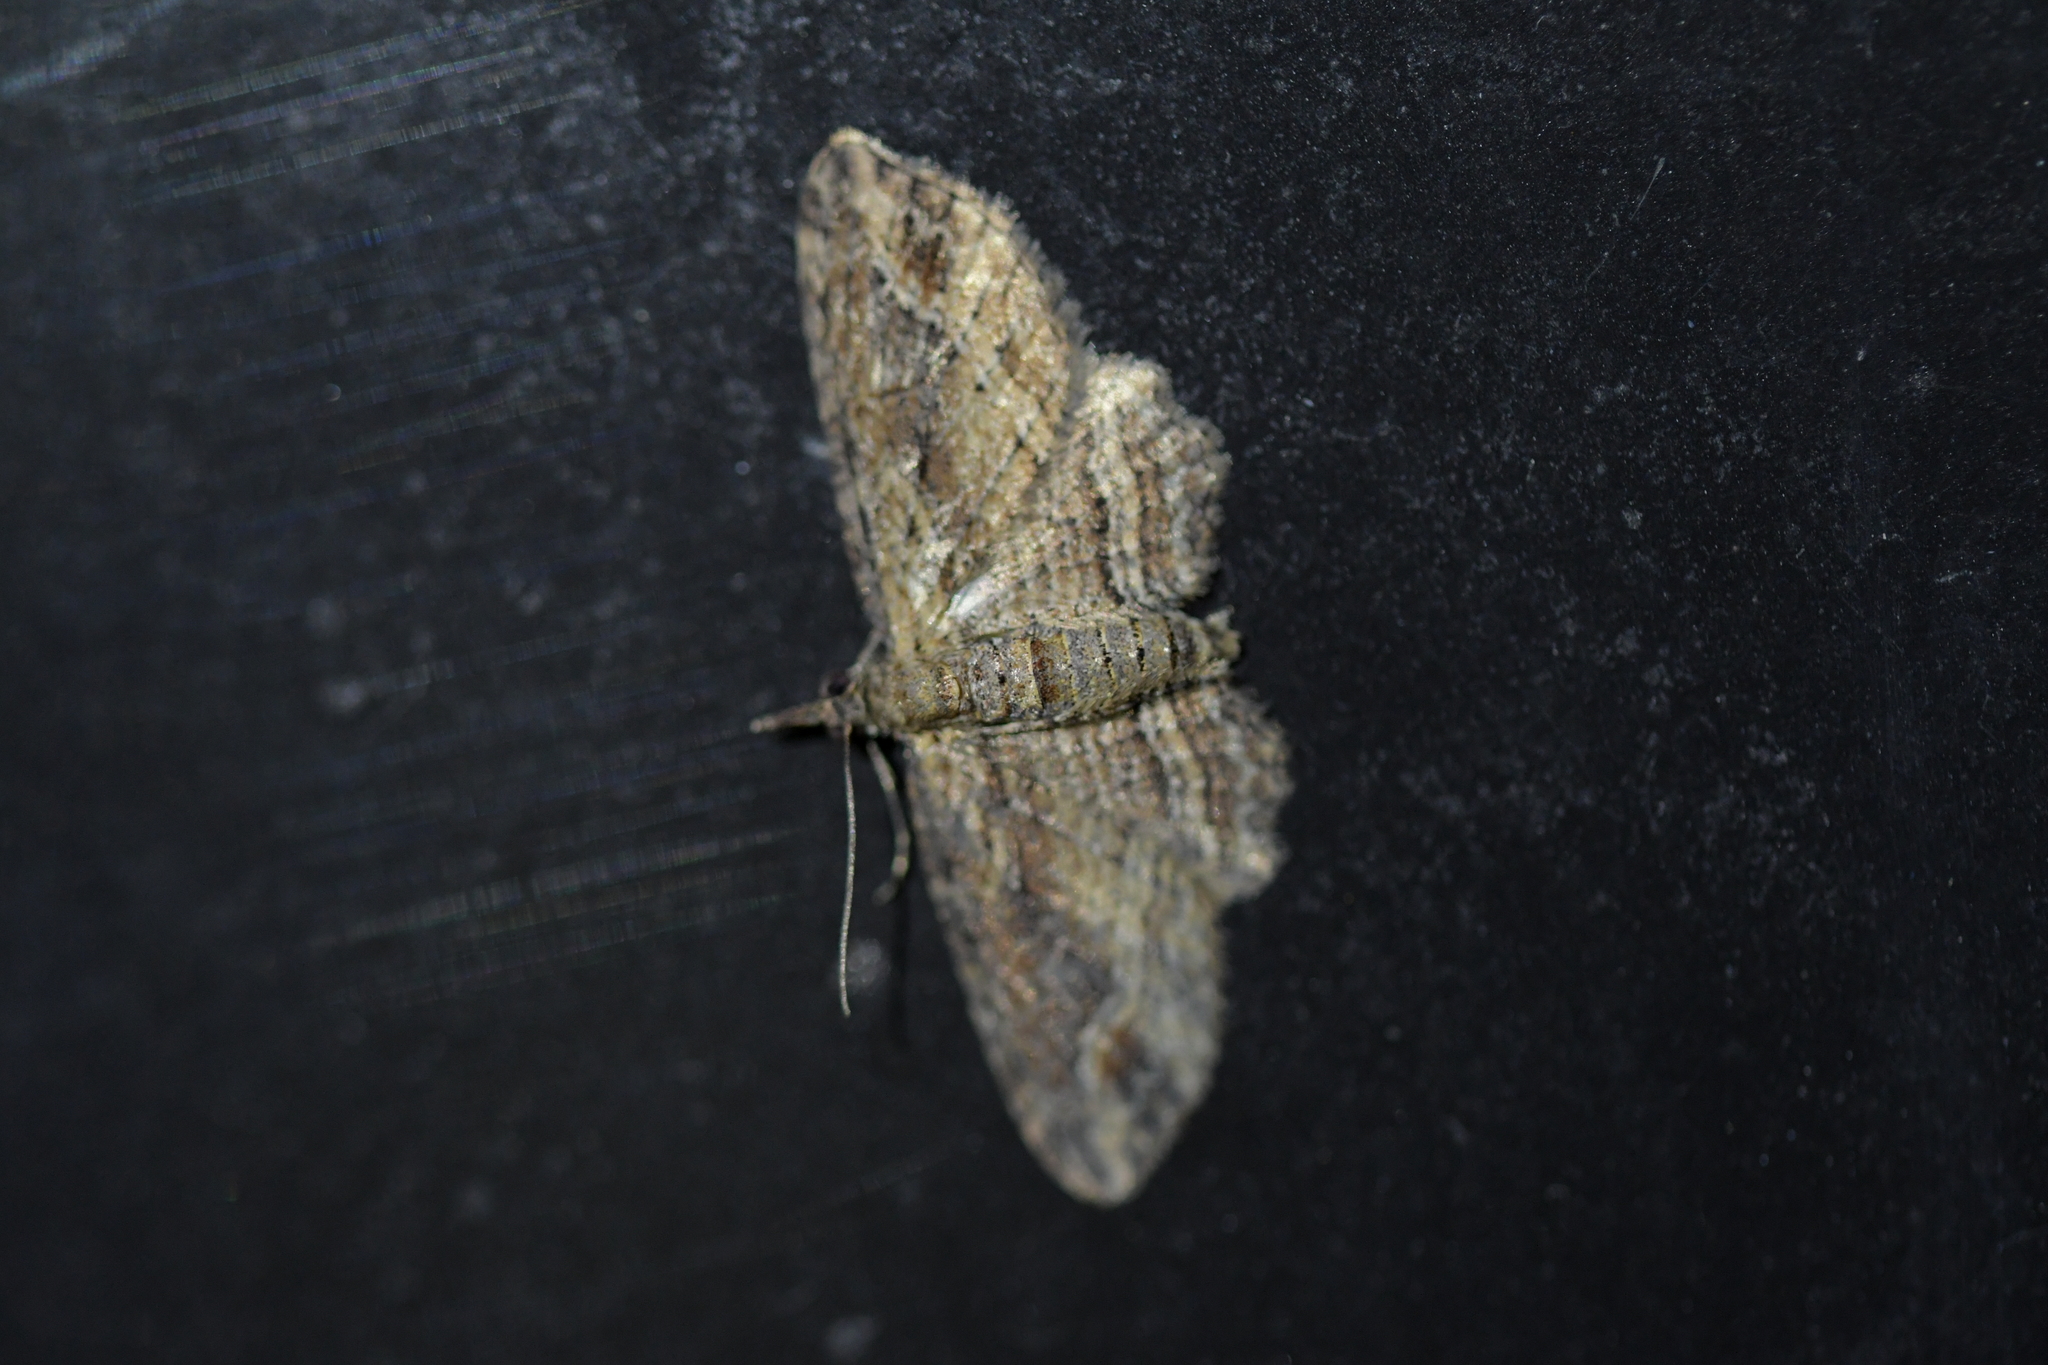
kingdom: Animalia
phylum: Arthropoda
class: Insecta
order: Lepidoptera
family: Geometridae
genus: Chloroclystis
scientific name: Chloroclystis filata
